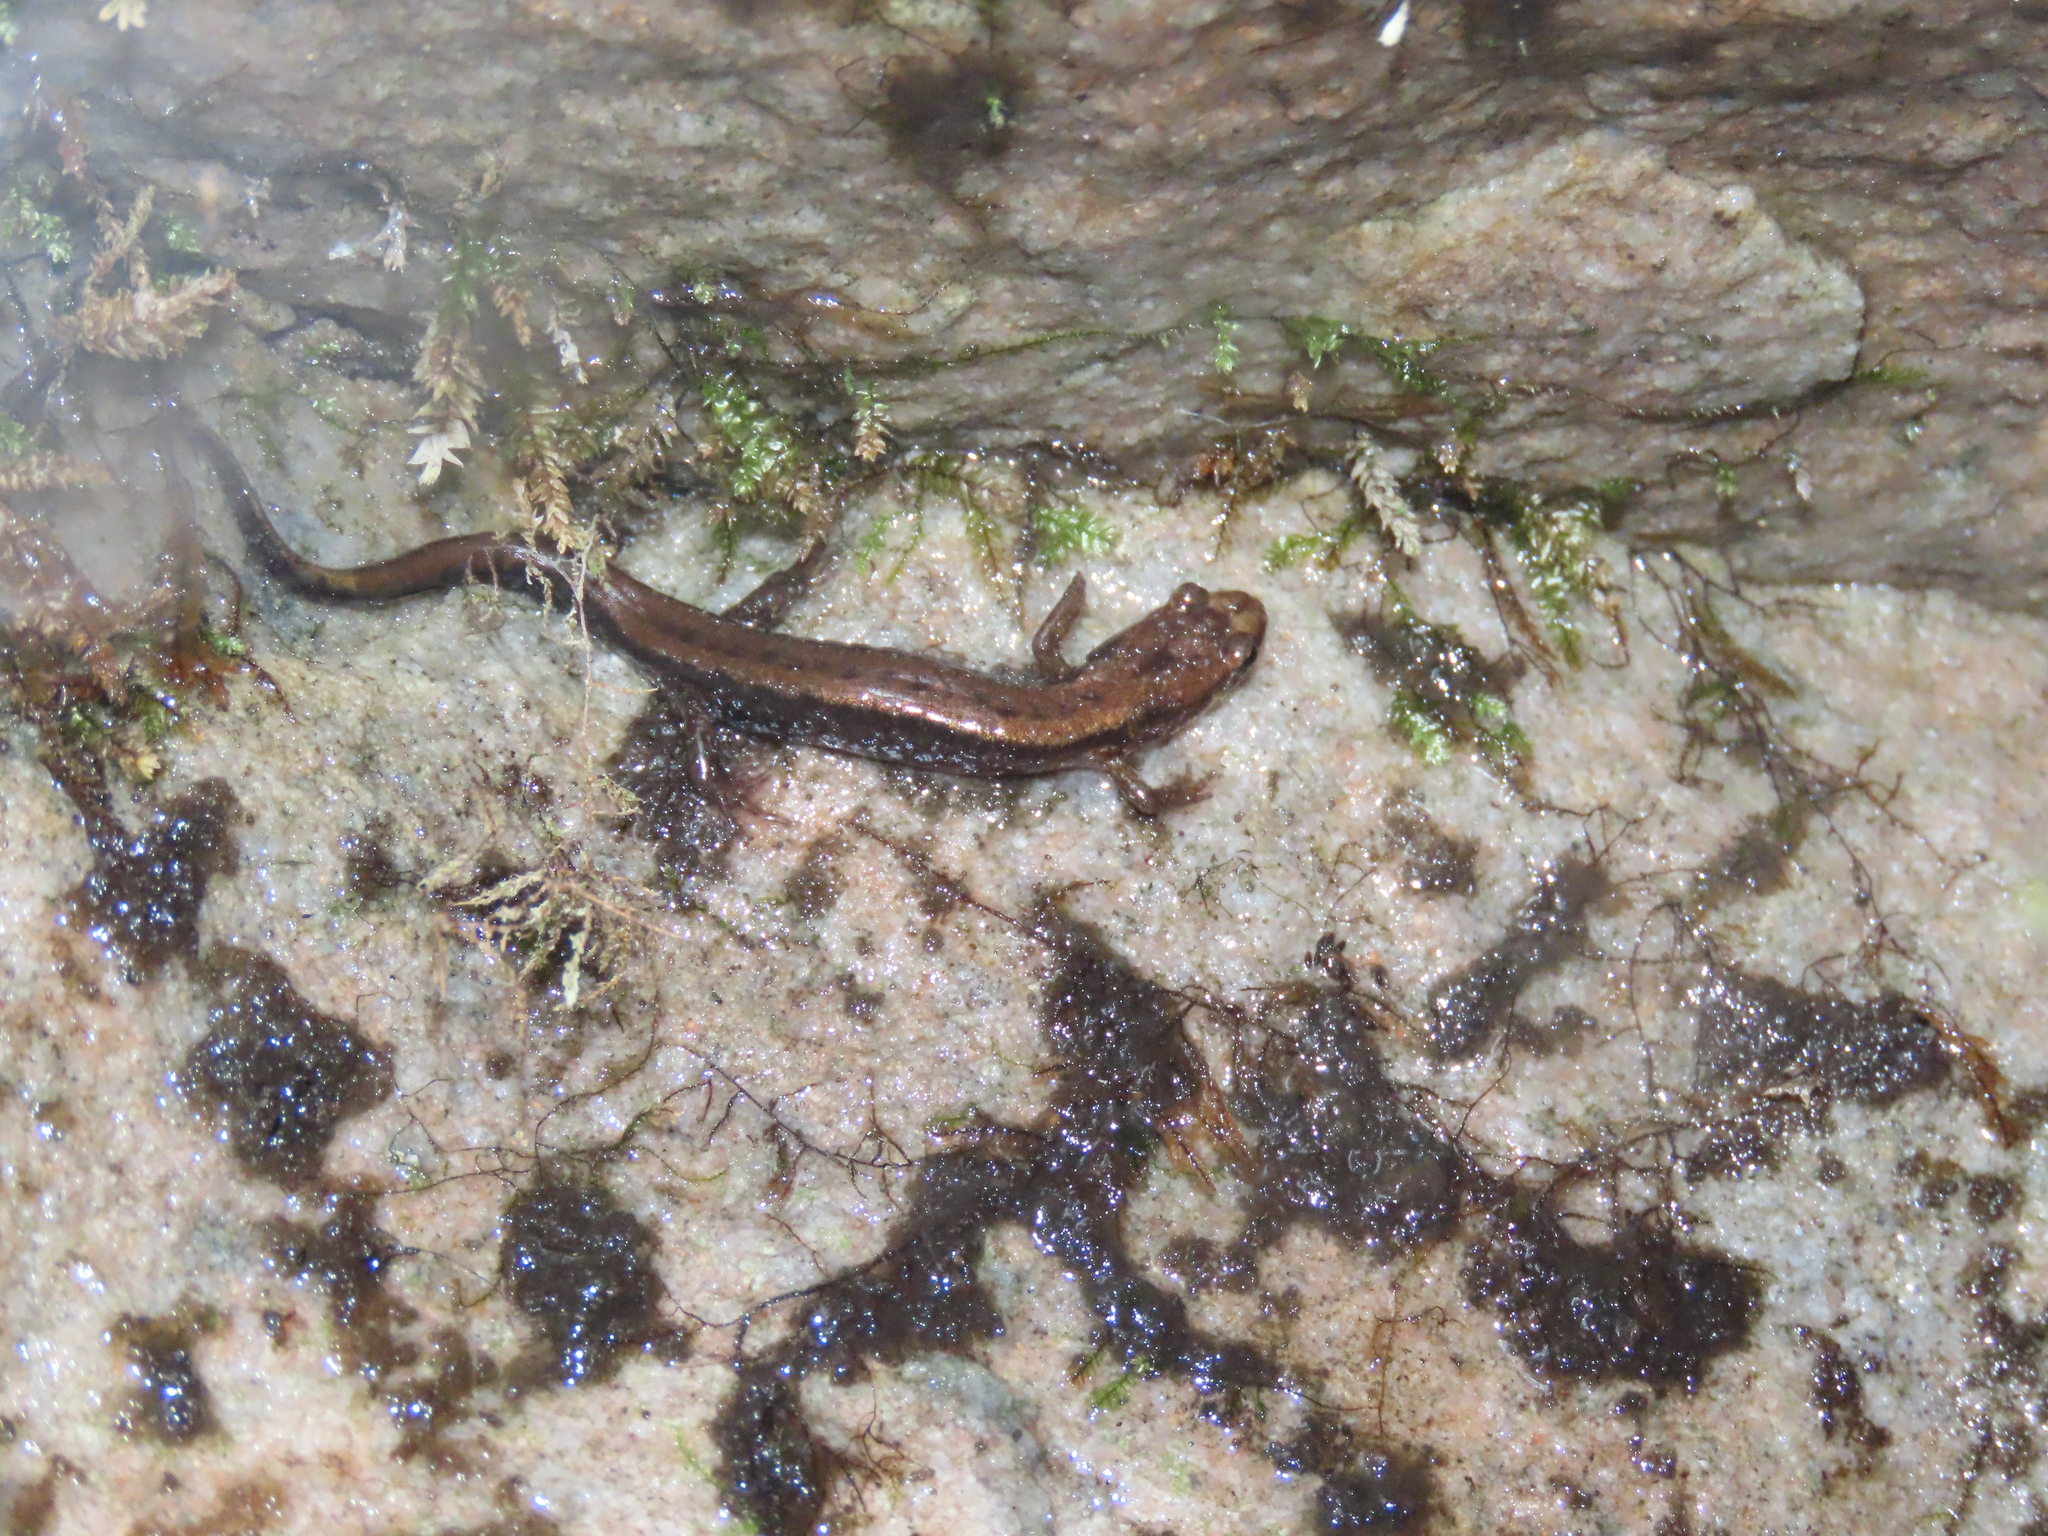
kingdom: Animalia
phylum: Chordata
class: Amphibia
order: Caudata
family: Plethodontidae
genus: Desmognathus
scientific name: Desmognathus ochrophaeus
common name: Allegheny mountain dusky salamander
